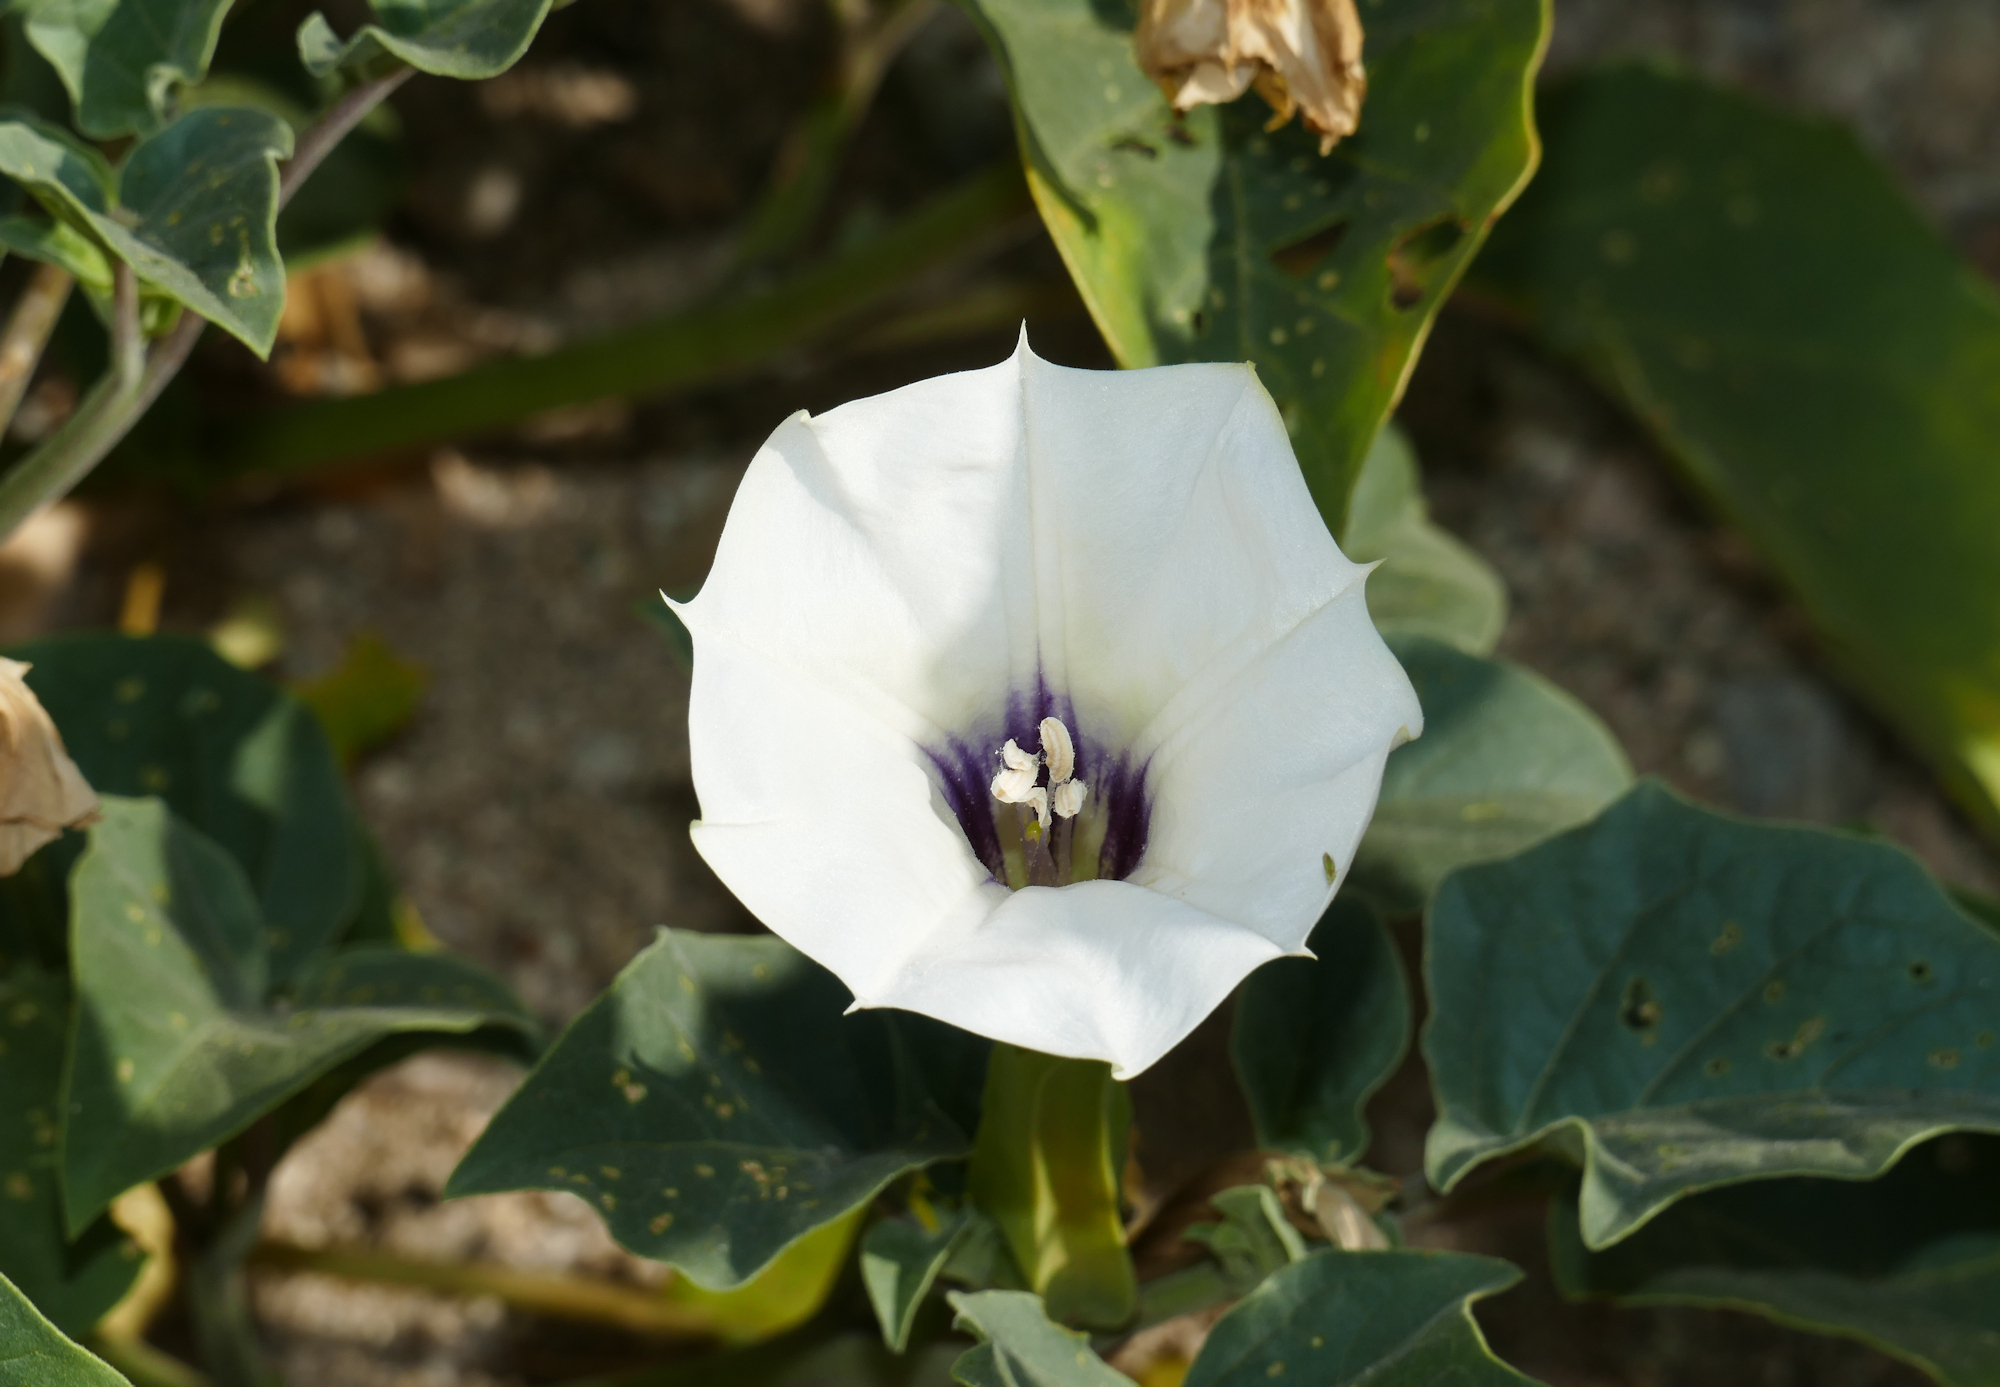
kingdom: Plantae
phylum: Tracheophyta
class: Magnoliopsida
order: Solanales
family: Solanaceae
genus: Datura
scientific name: Datura discolor
